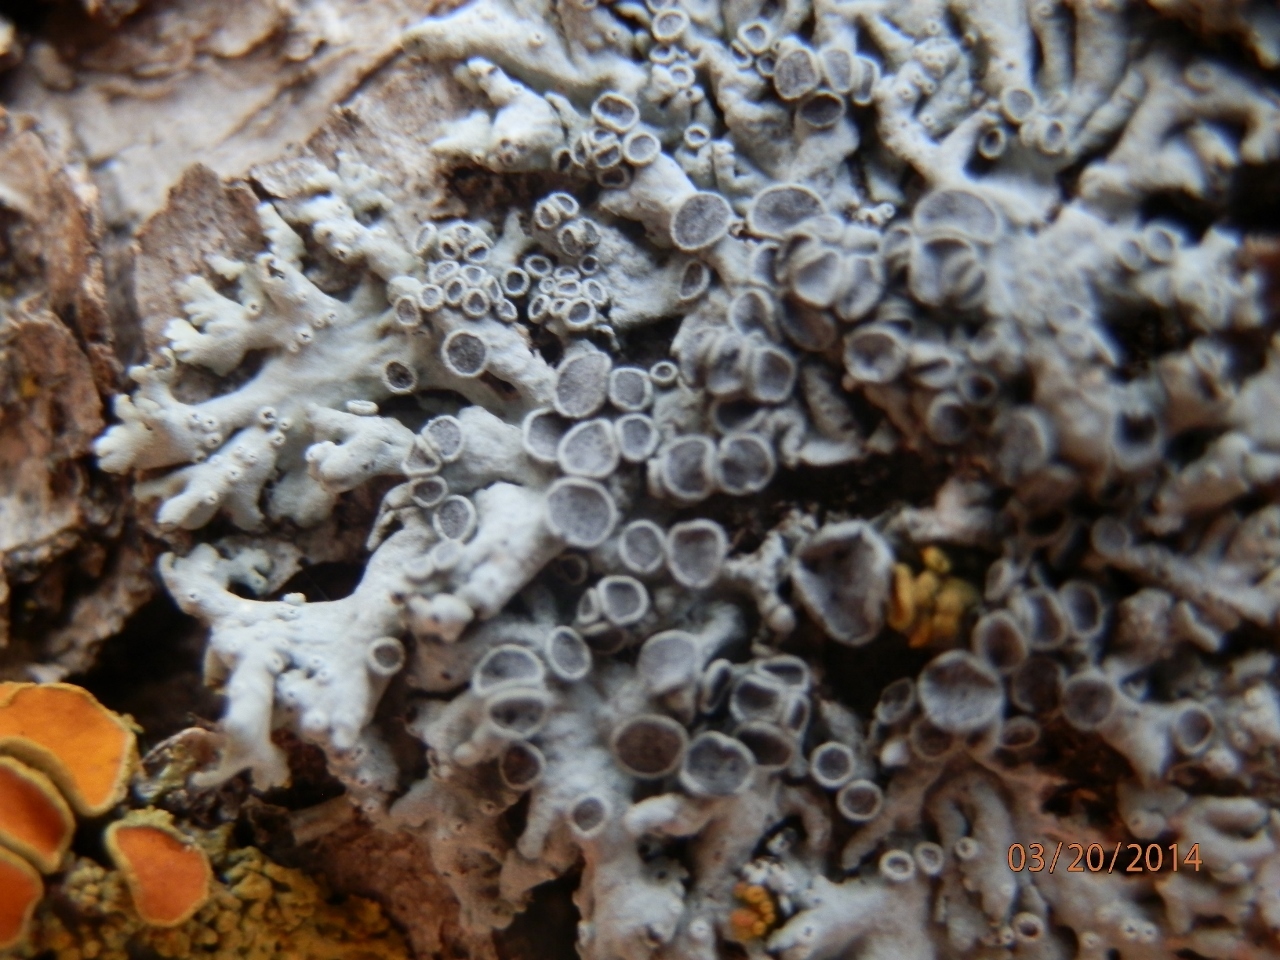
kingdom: Fungi
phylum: Ascomycota
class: Lecanoromycetes
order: Caliciales
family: Physciaceae
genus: Physcia
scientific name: Physcia aipolia
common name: Hoary rosette lichen
